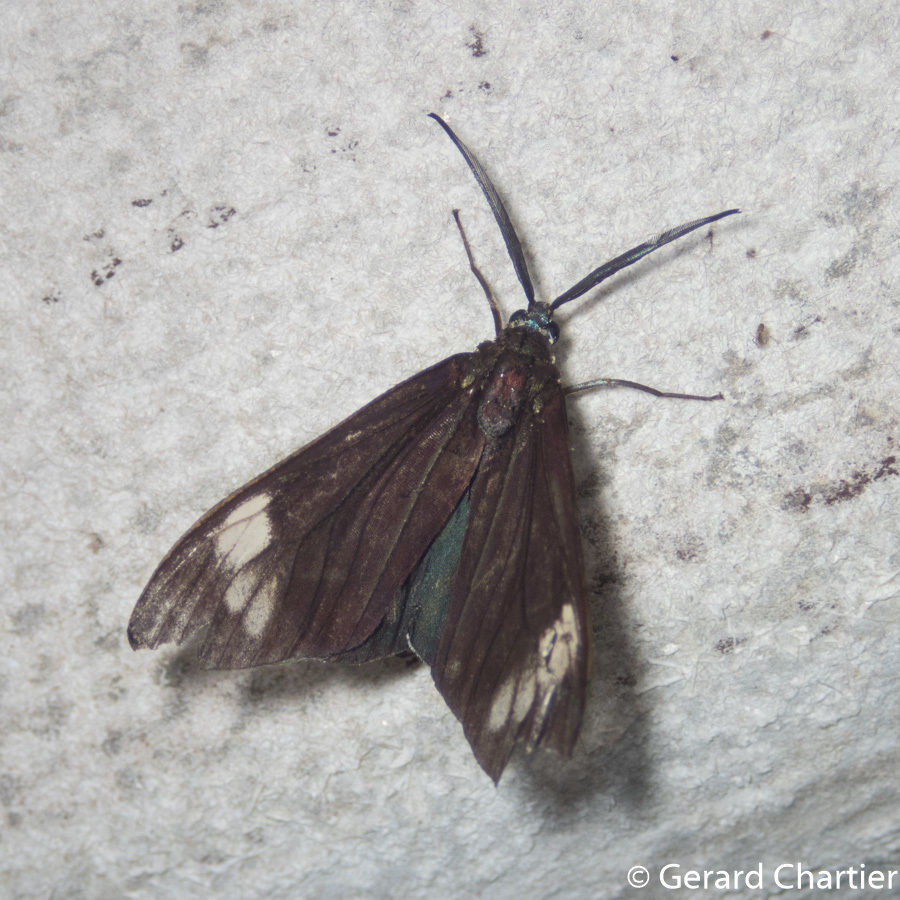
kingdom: Animalia
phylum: Arthropoda
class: Insecta
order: Lepidoptera
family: Zygaenidae
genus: Cyclosia
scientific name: Cyclosia papilionaris
